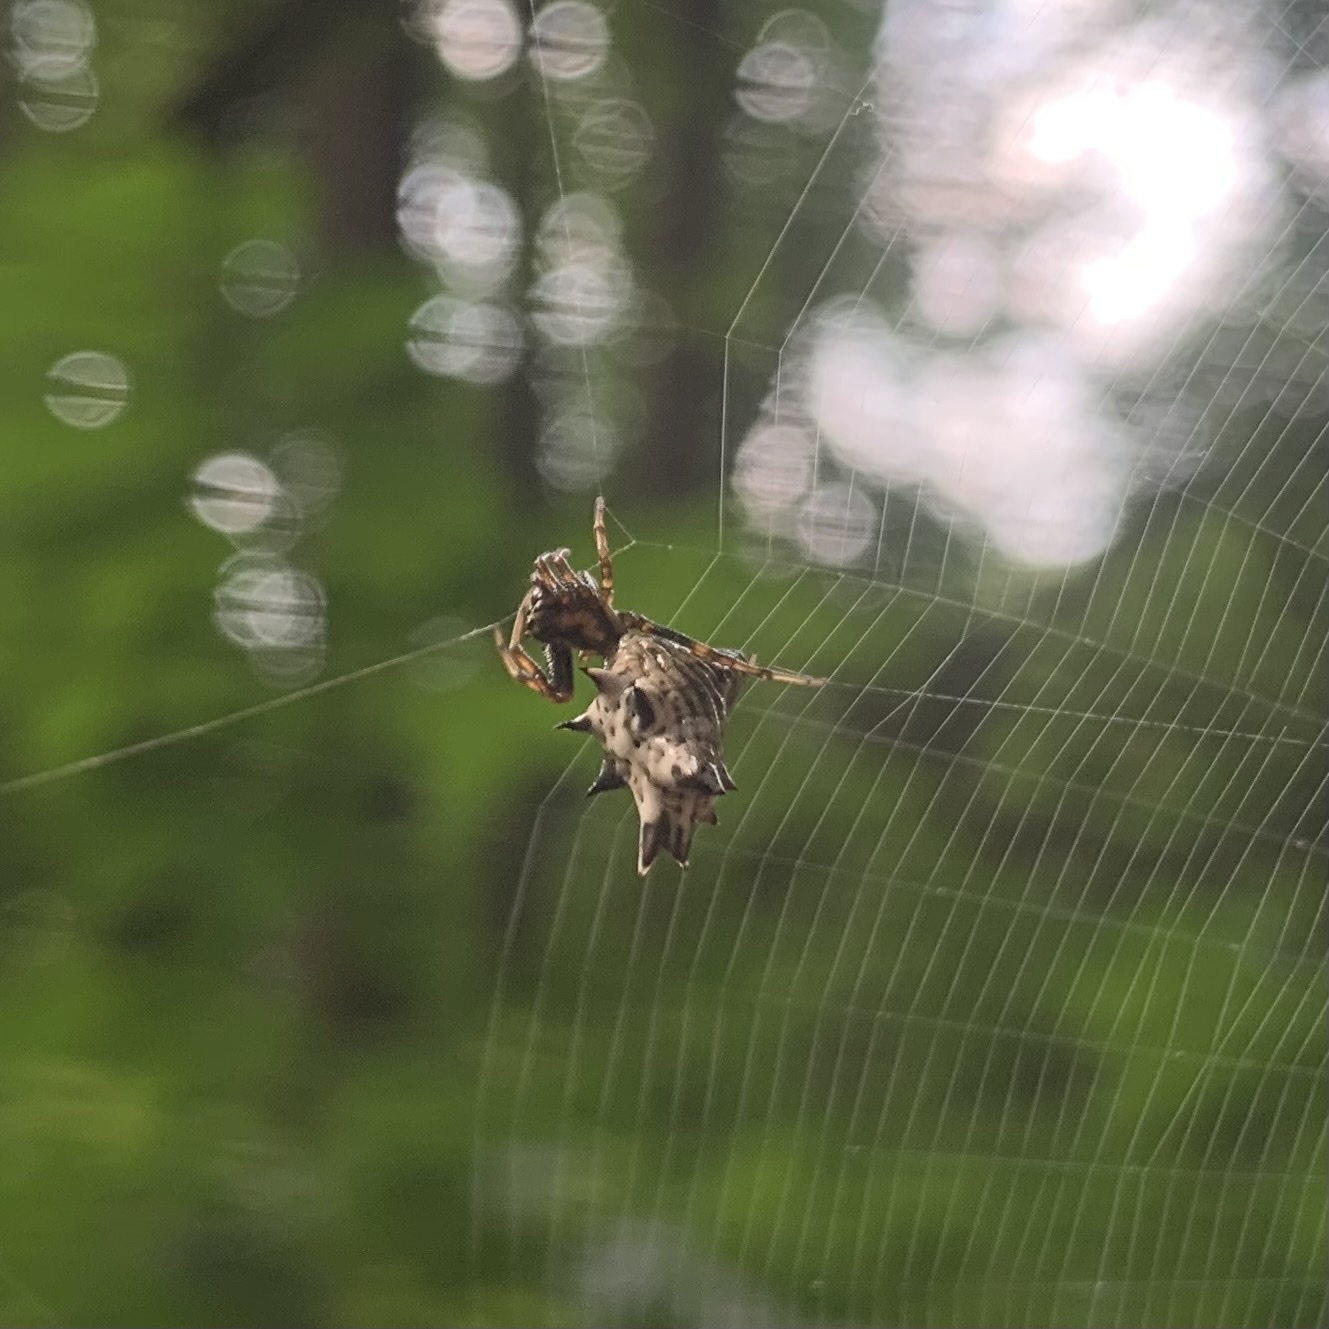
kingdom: Animalia
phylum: Arthropoda
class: Arachnida
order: Araneae
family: Araneidae
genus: Micrathena
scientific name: Micrathena gracilis
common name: Orb weavers
